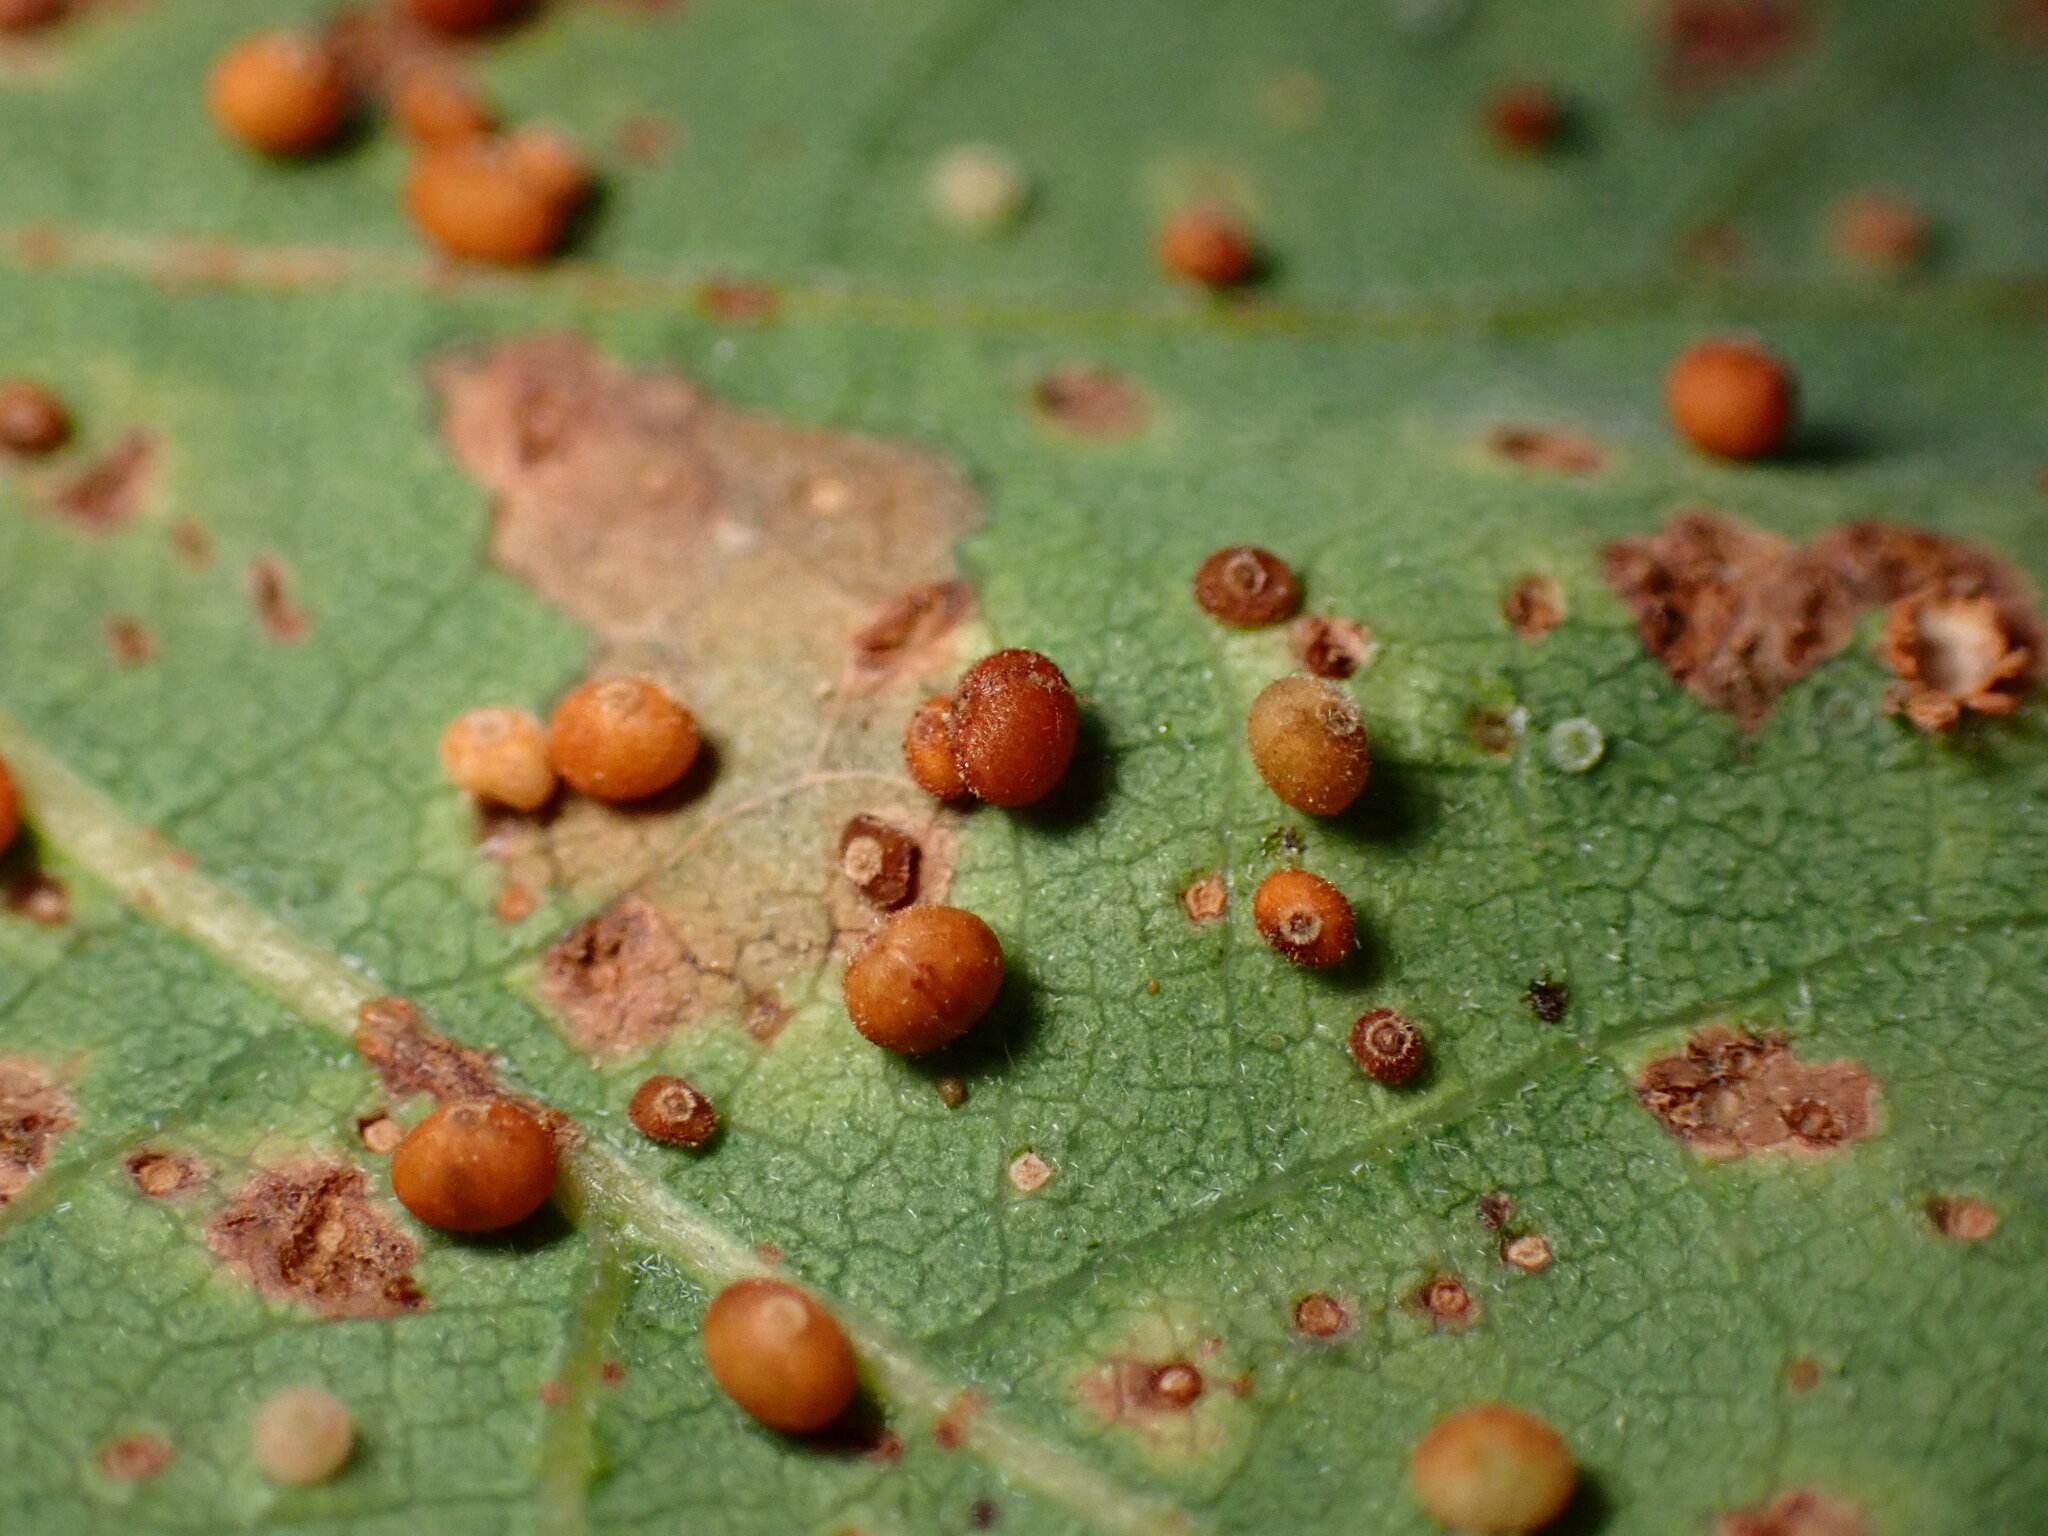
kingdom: Animalia
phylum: Arthropoda
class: Insecta
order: Hymenoptera
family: Cynipidae
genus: Neuroterus
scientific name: Neuroterus saltarius
